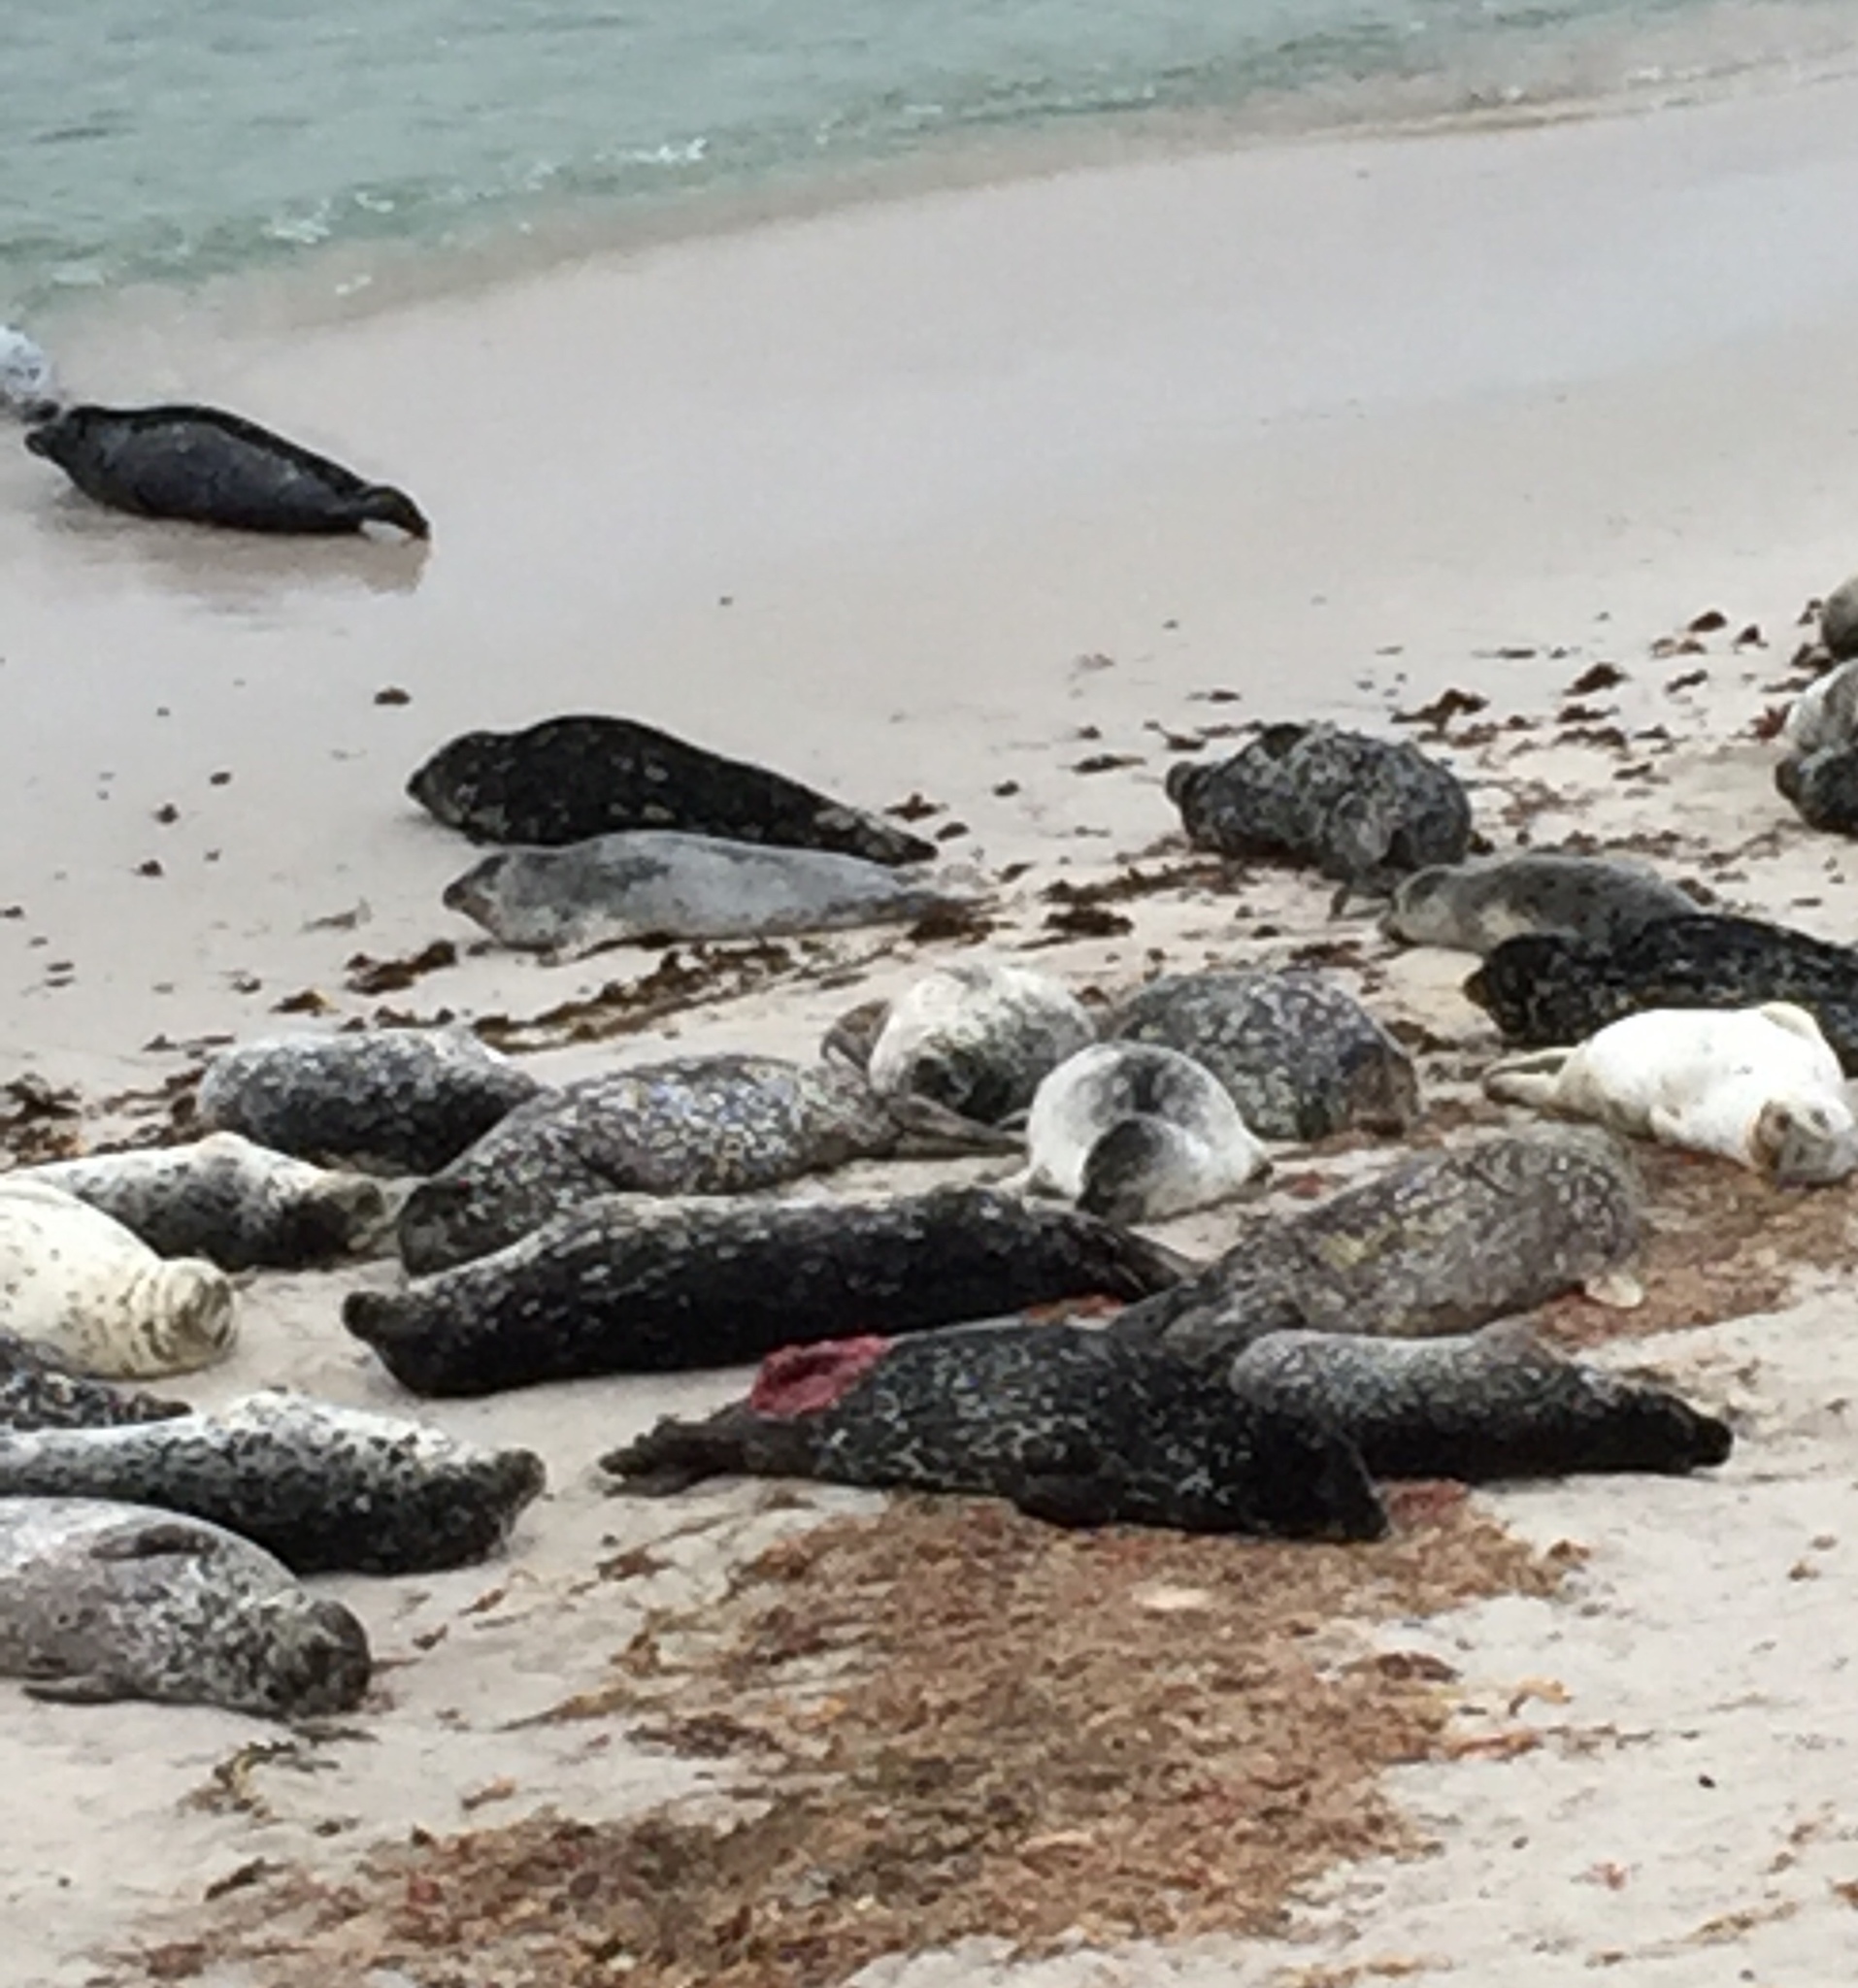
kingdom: Animalia
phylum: Chordata
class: Mammalia
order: Carnivora
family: Phocidae
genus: Phoca
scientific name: Phoca vitulina
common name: Harbor seal
